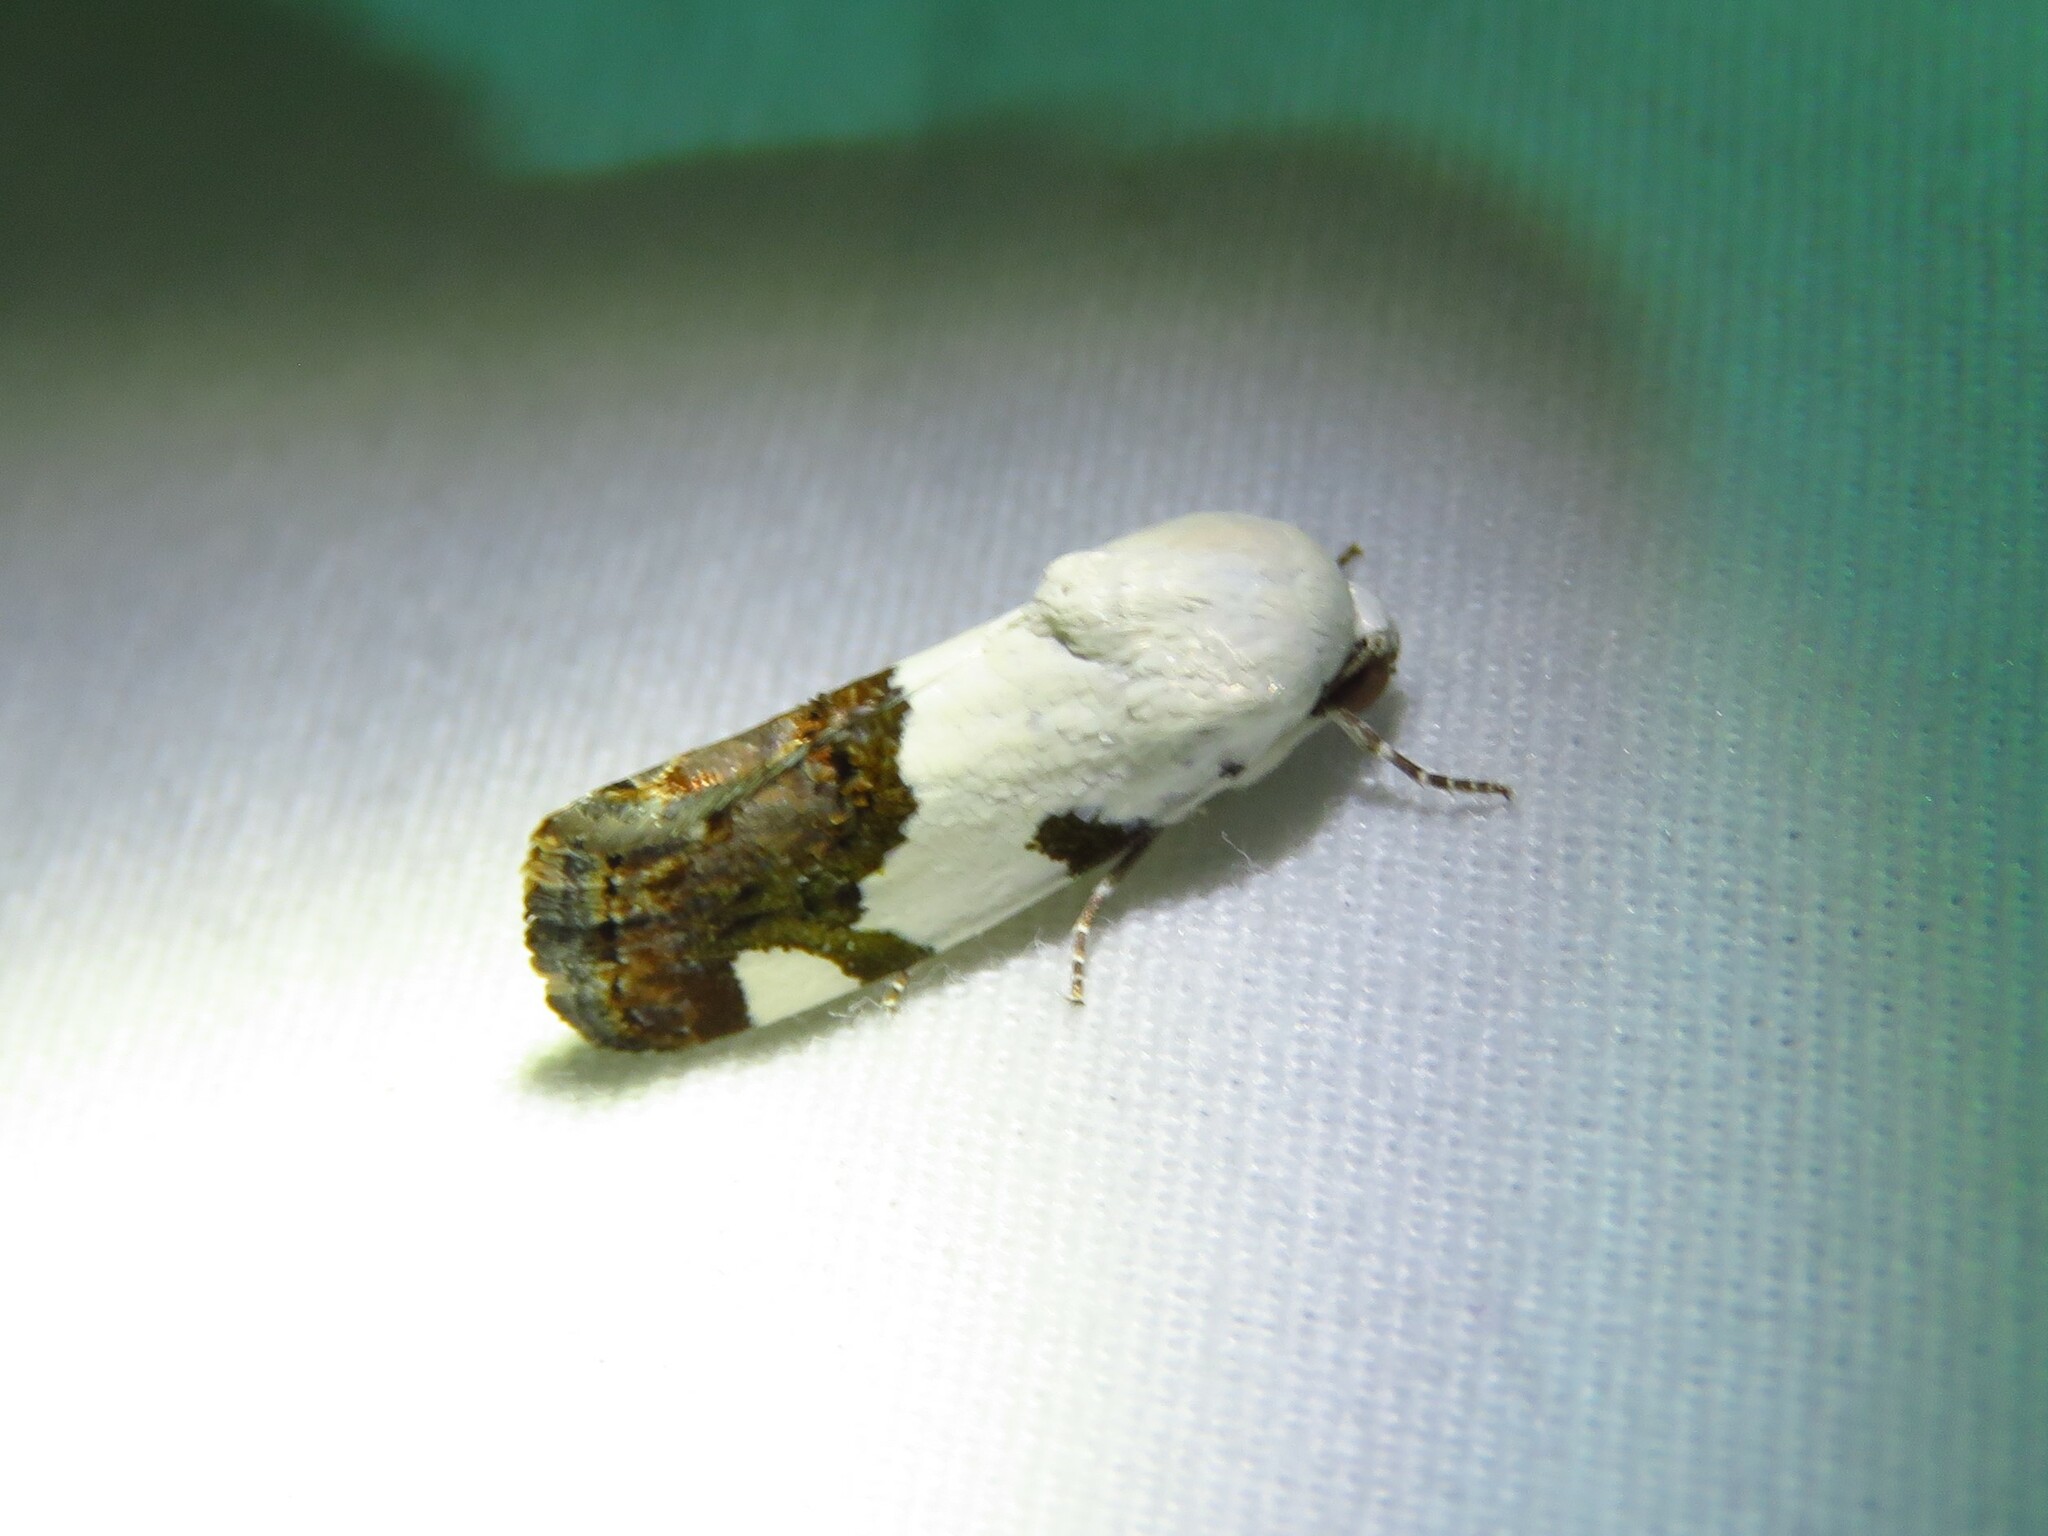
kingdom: Animalia
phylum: Arthropoda
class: Insecta
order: Lepidoptera
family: Noctuidae
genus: Acontia
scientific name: Acontia quadriplaga
